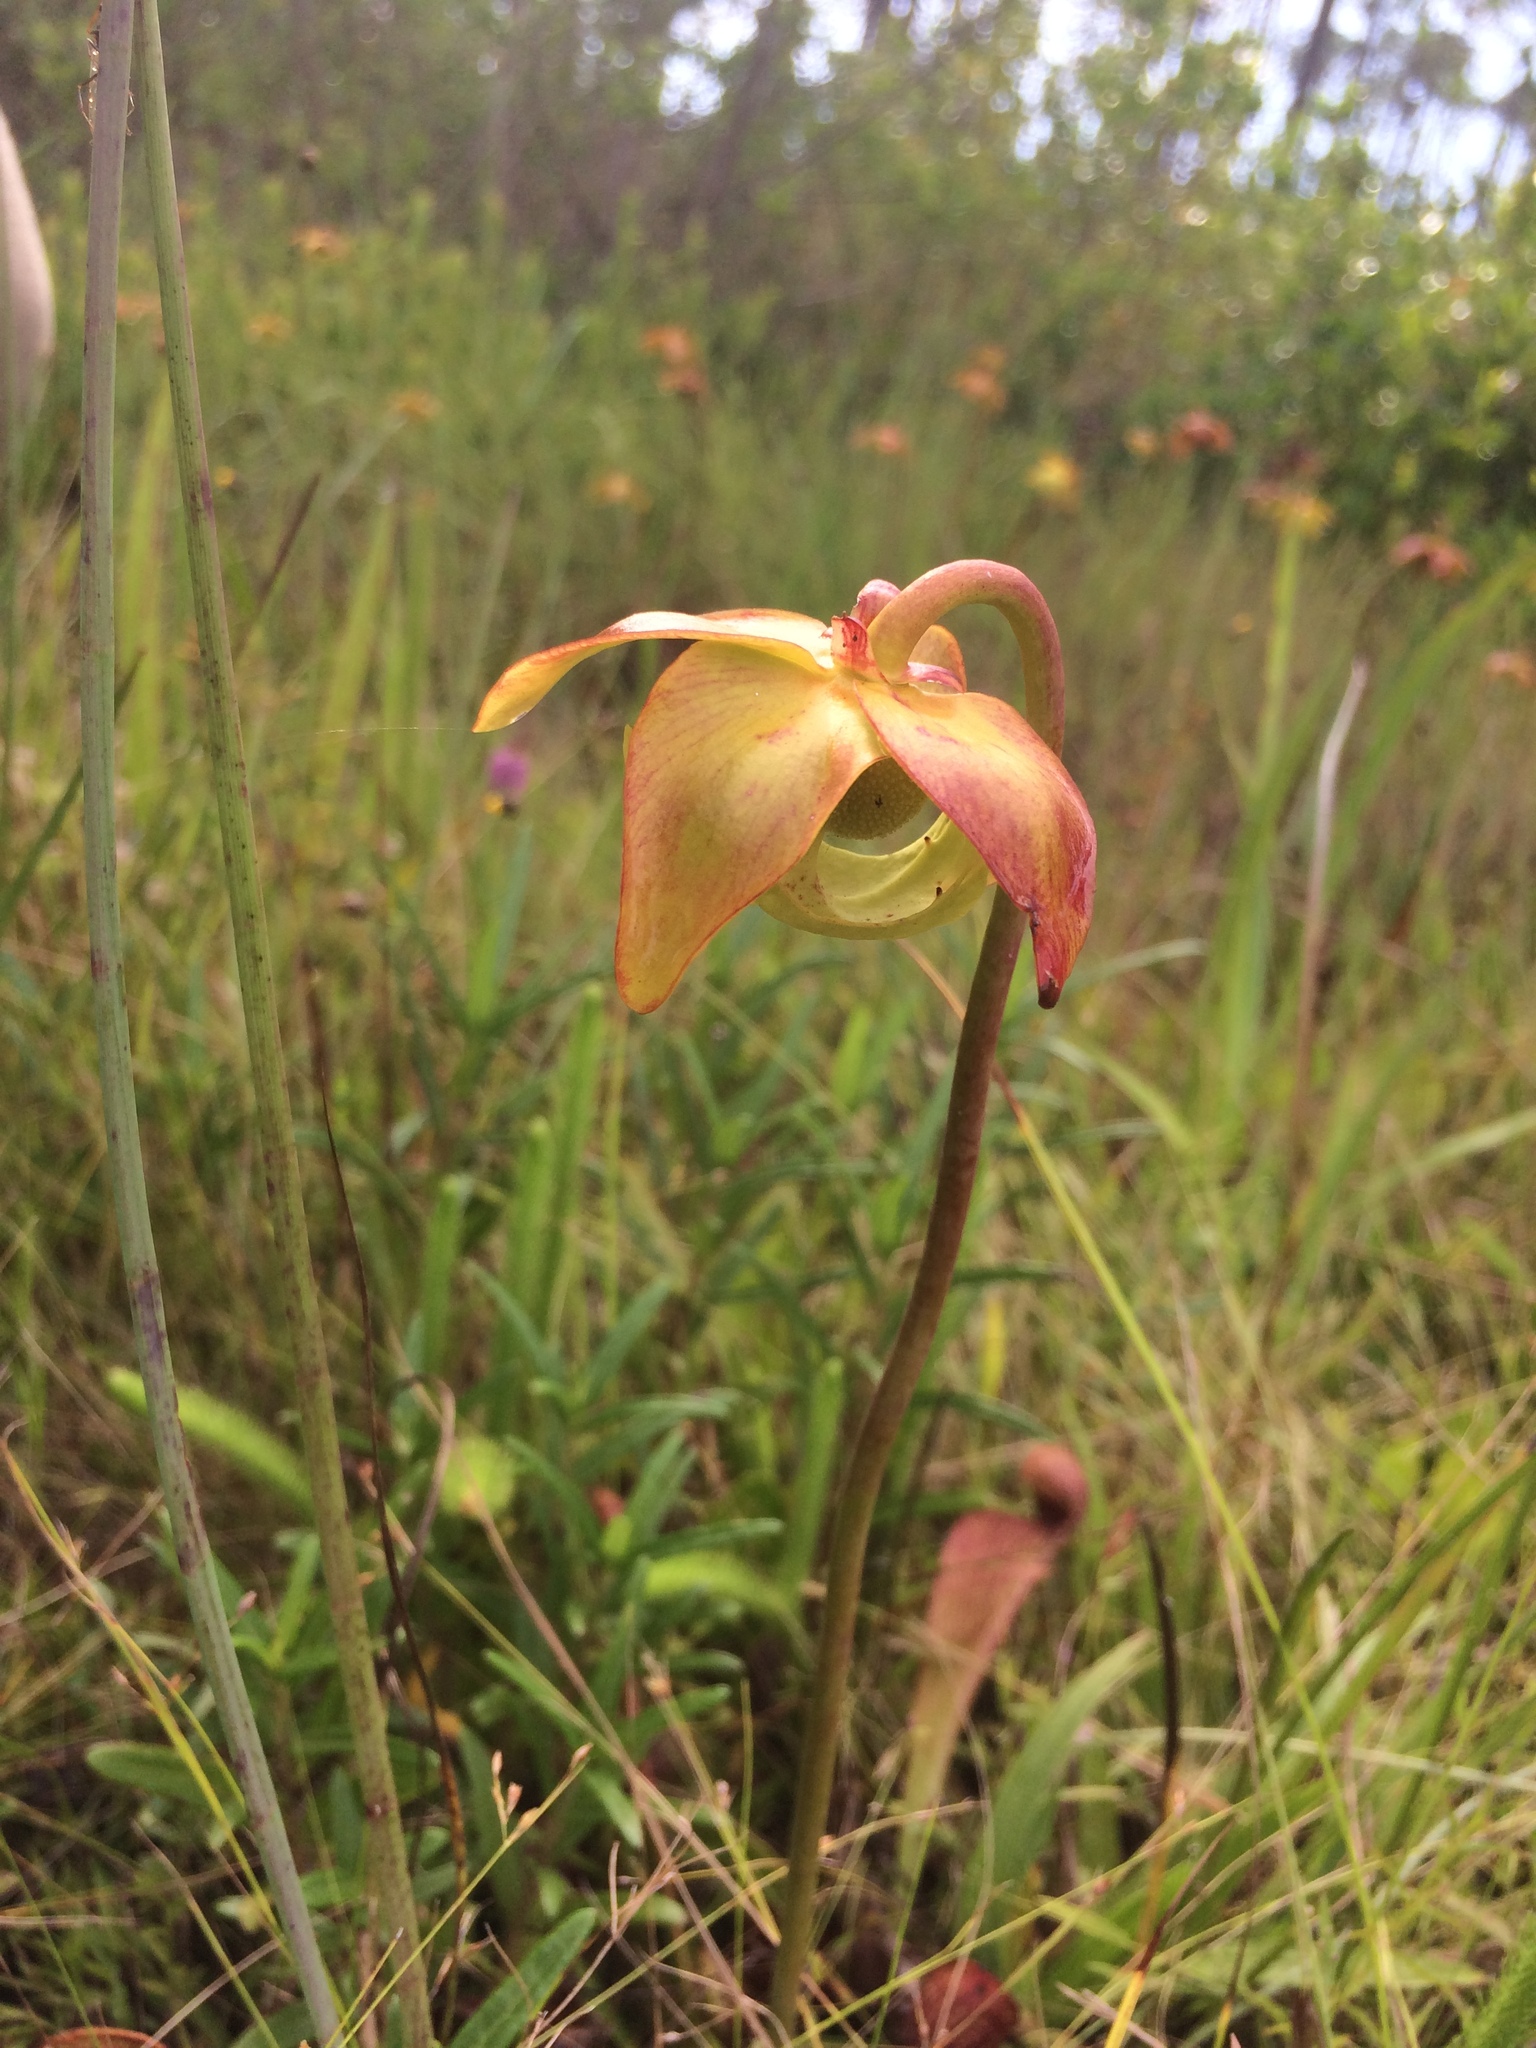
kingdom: Plantae
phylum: Tracheophyta
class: Magnoliopsida
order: Ericales
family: Sarraceniaceae
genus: Sarracenia
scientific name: Sarracenia psittacina
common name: Parrot pitcherplant
